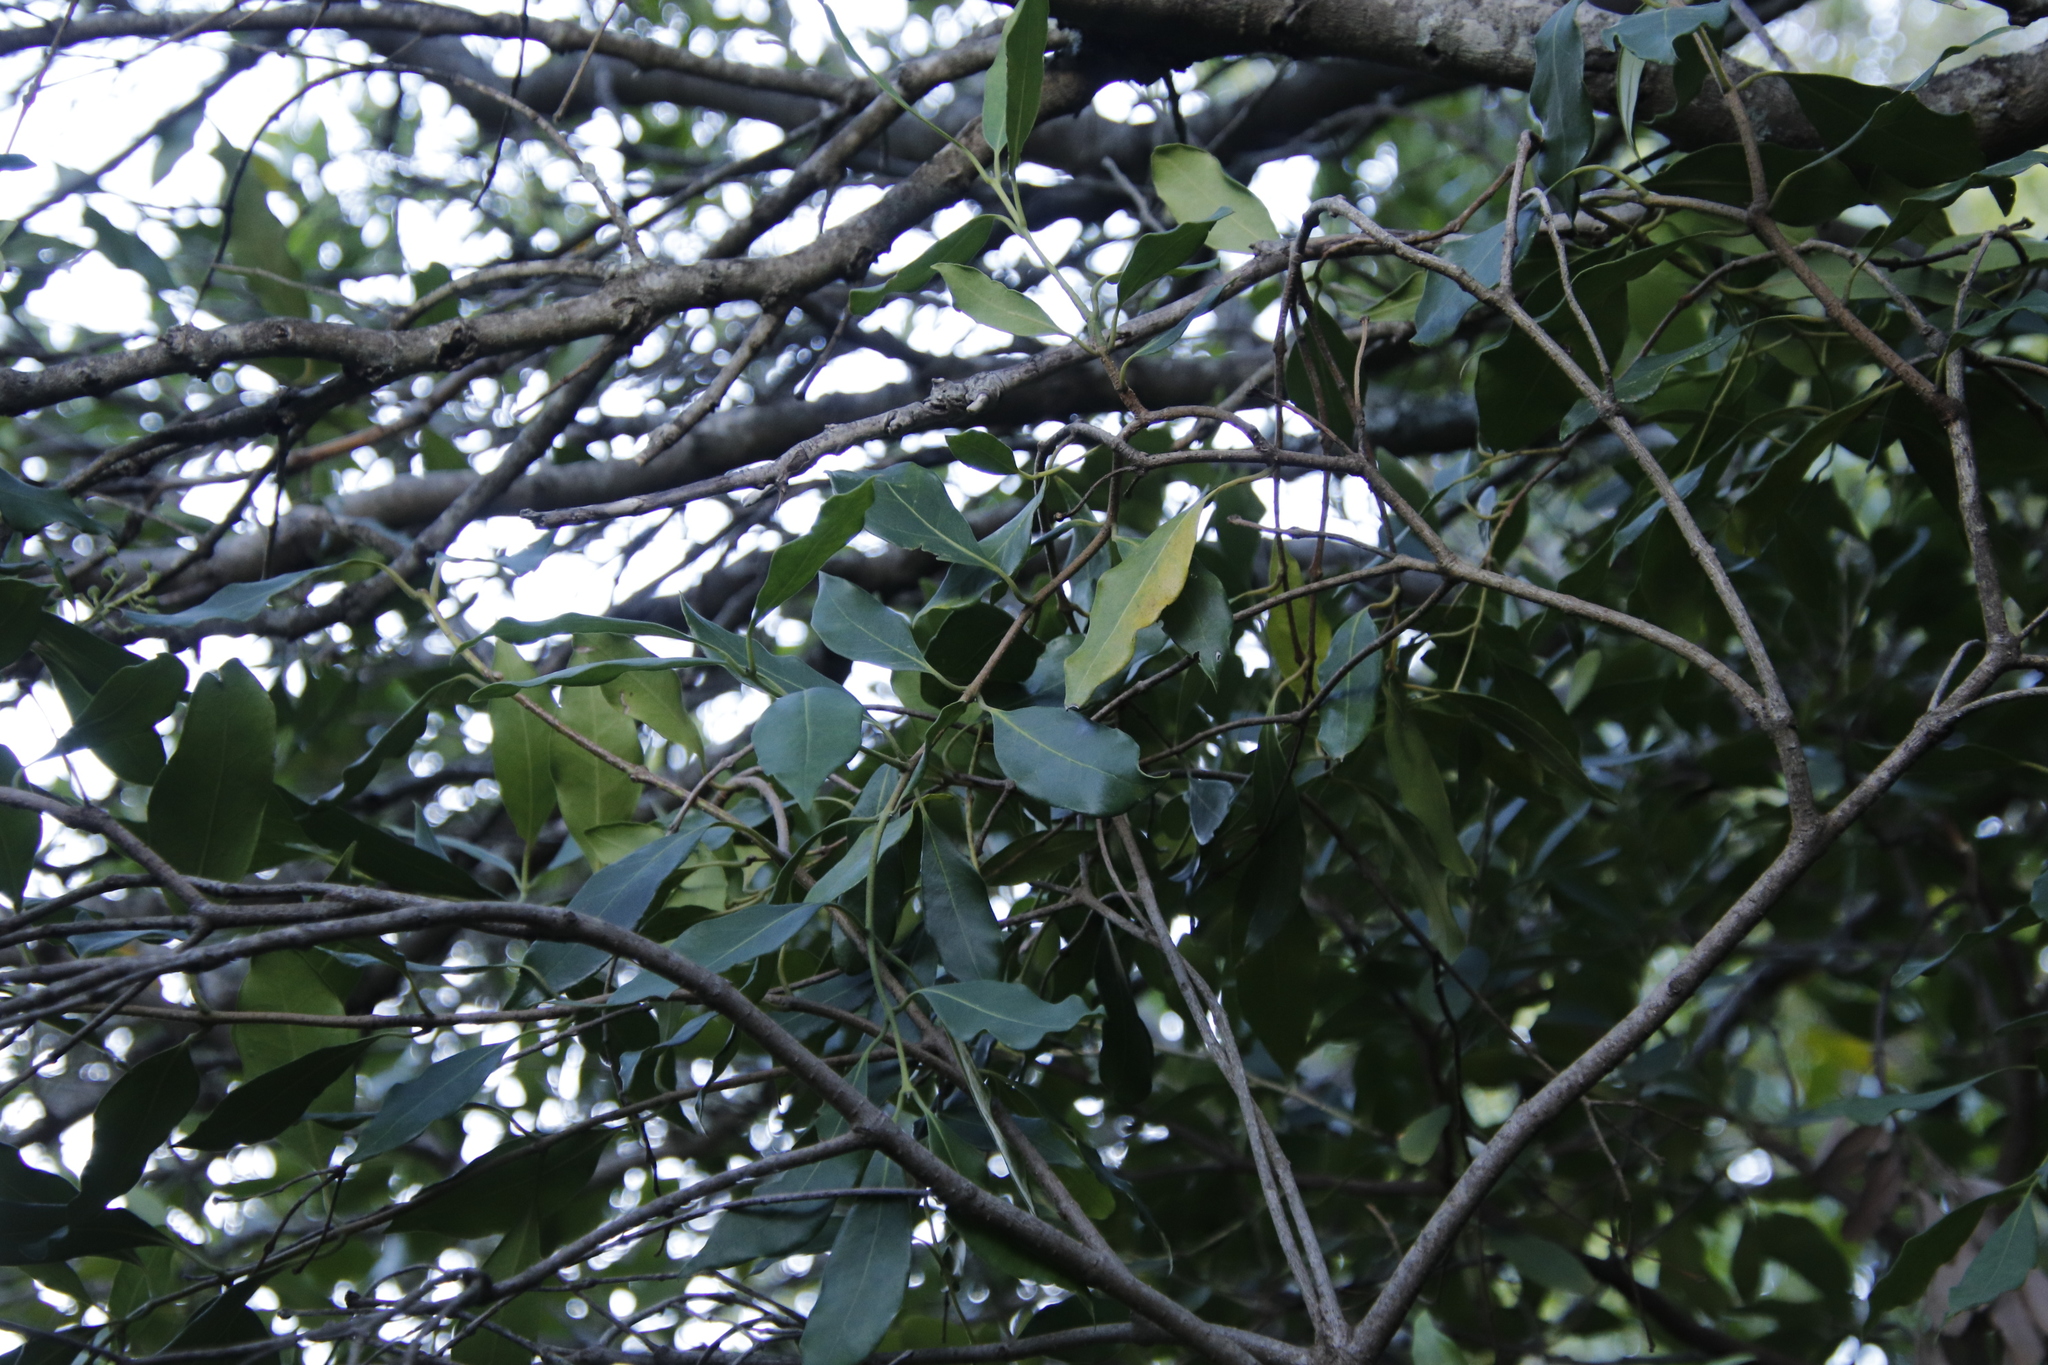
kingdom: Plantae
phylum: Tracheophyta
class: Magnoliopsida
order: Lamiales
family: Oleaceae
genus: Olea
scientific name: Olea capensis
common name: Black ironwood
